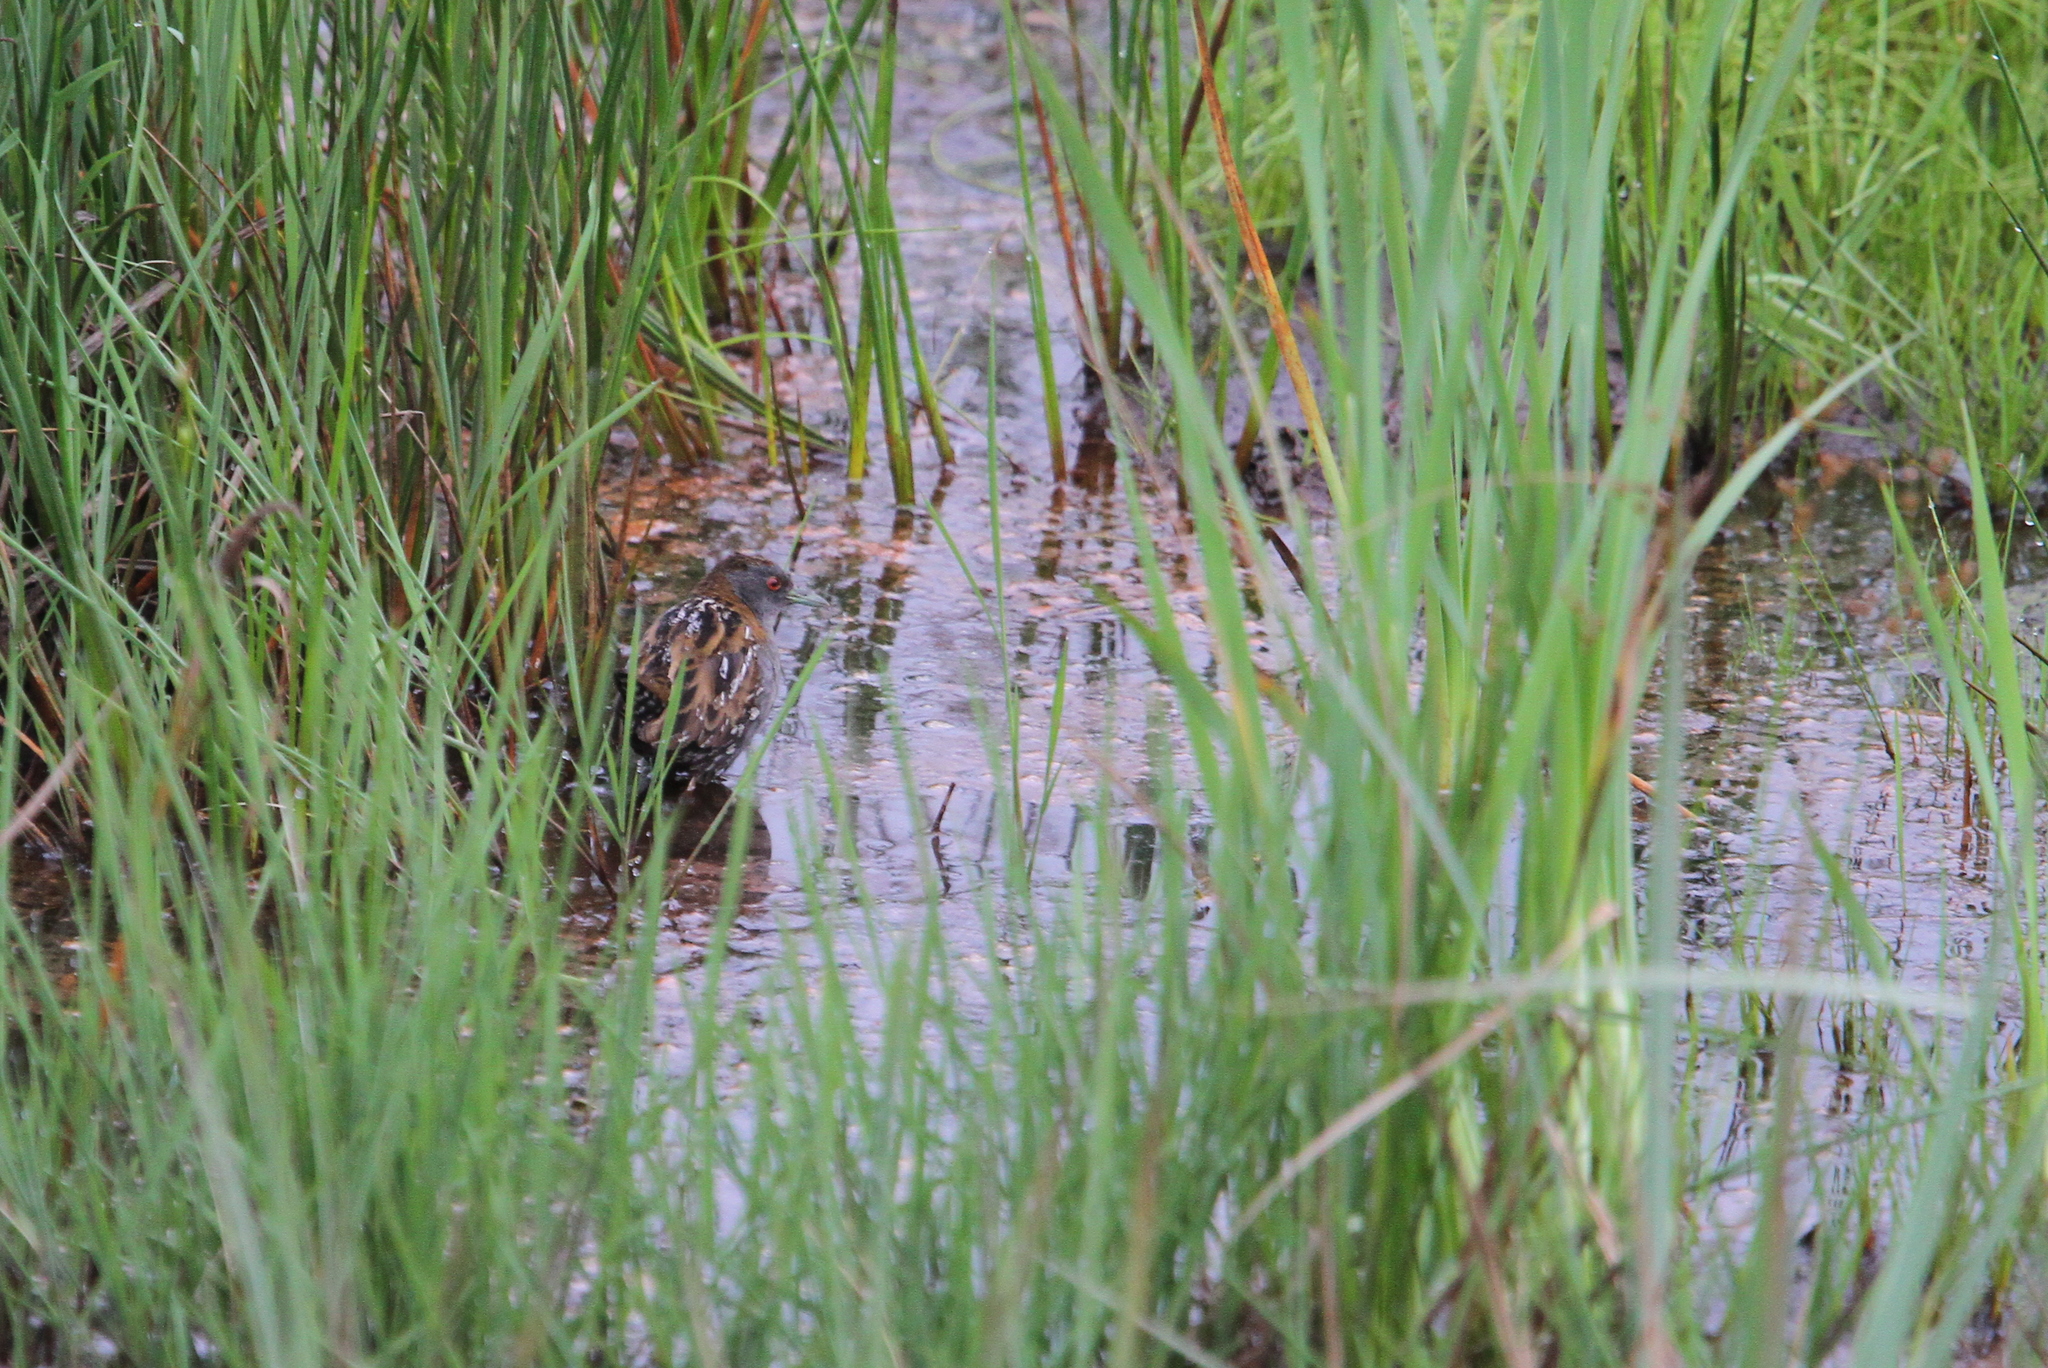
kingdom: Animalia
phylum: Chordata
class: Aves
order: Gruiformes
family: Rallidae
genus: Porzana
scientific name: Porzana pusilla
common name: Baillon's crake
